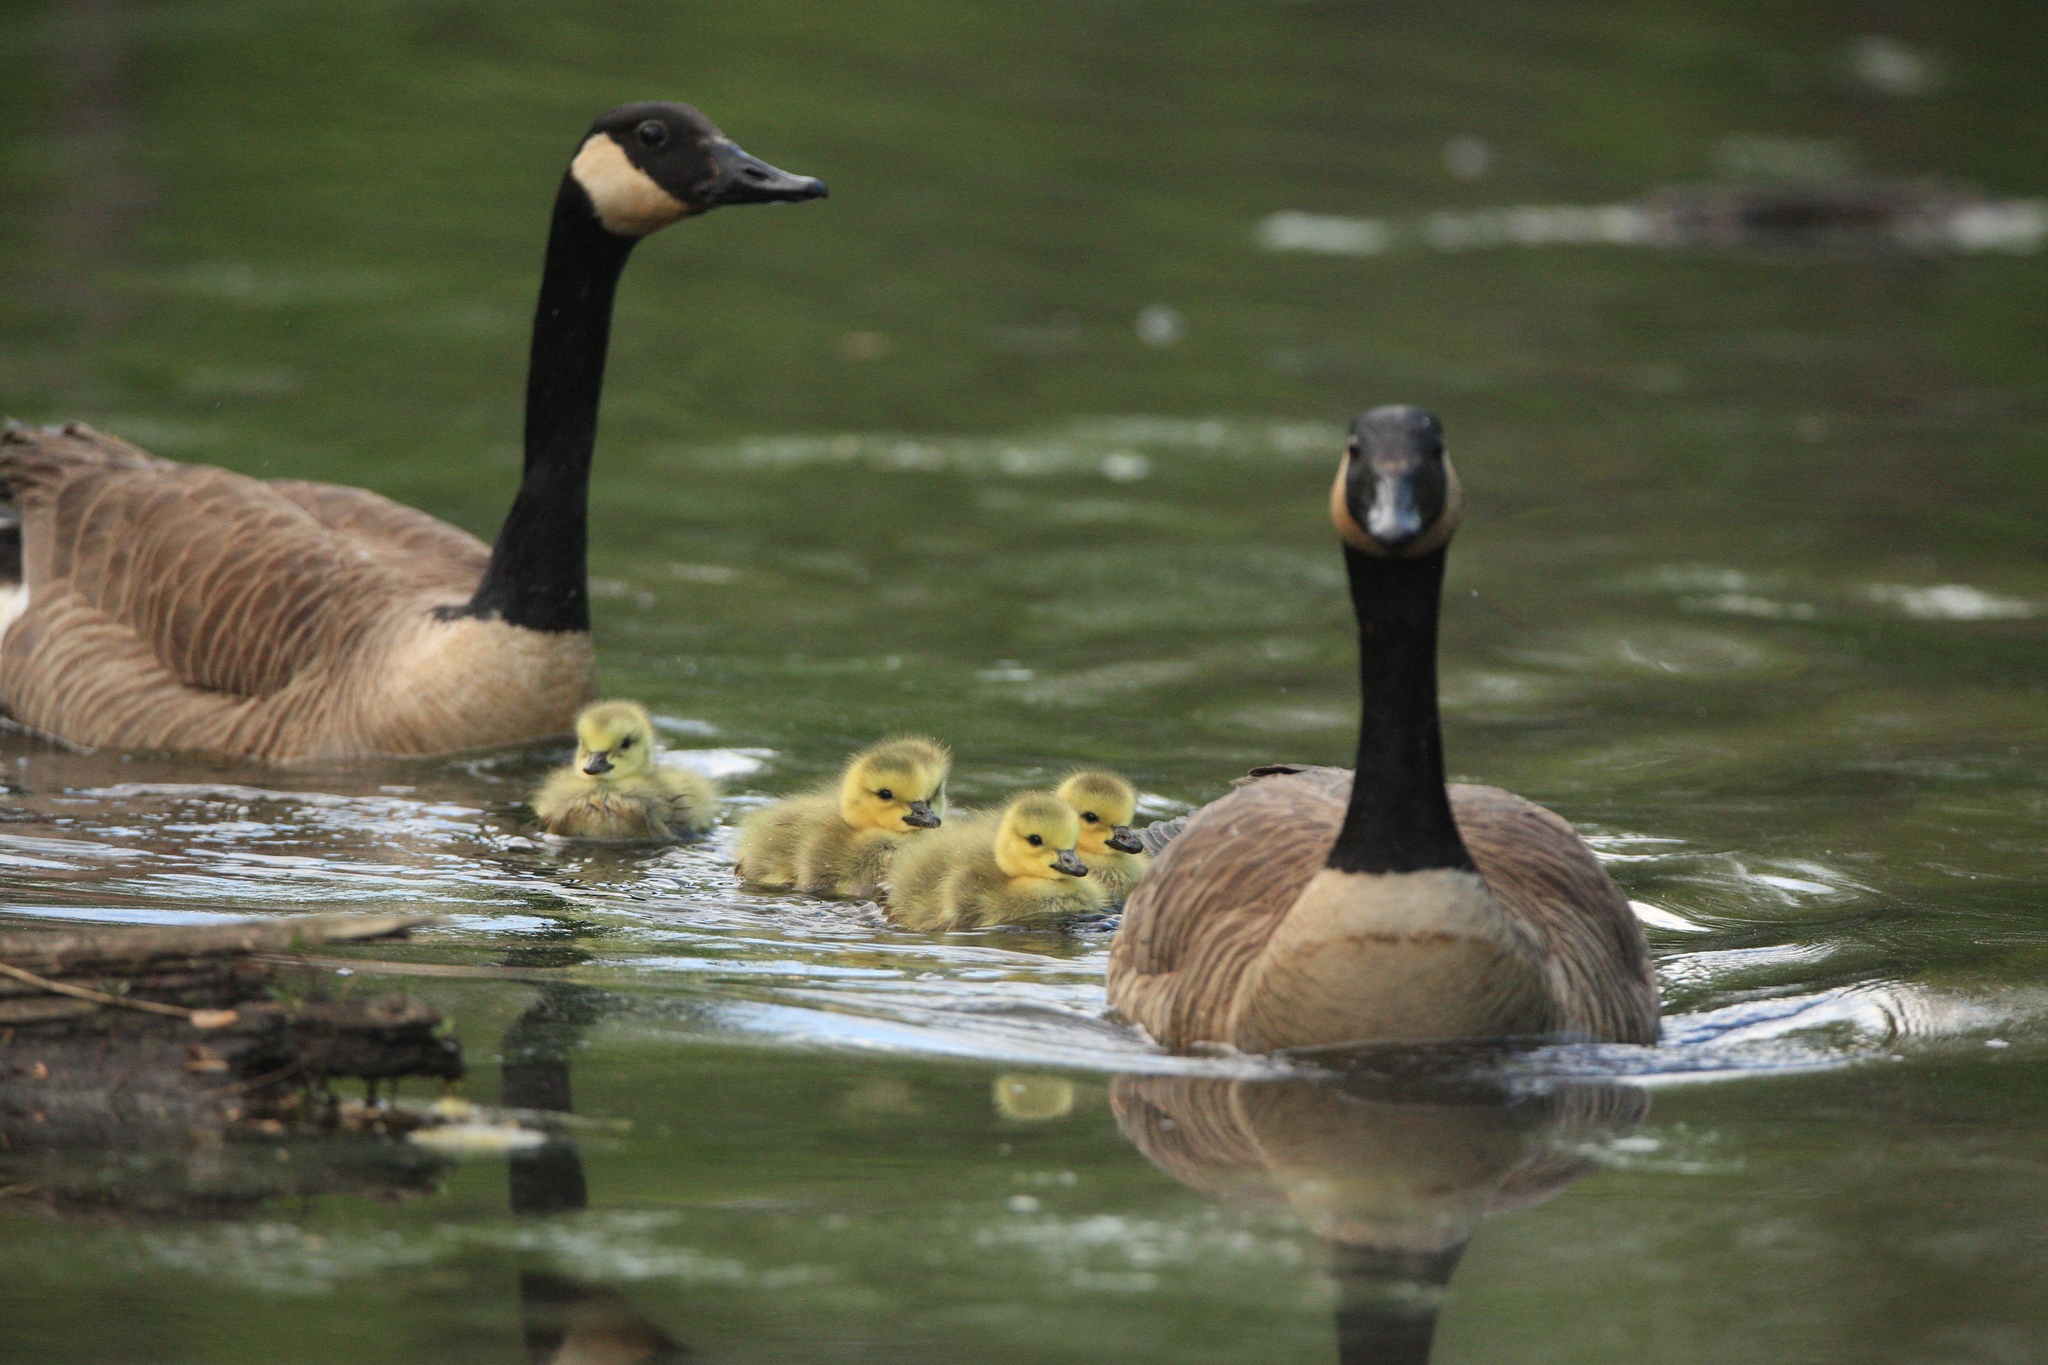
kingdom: Animalia
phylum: Chordata
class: Aves
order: Anseriformes
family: Anatidae
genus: Branta
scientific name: Branta canadensis
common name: Canada goose
